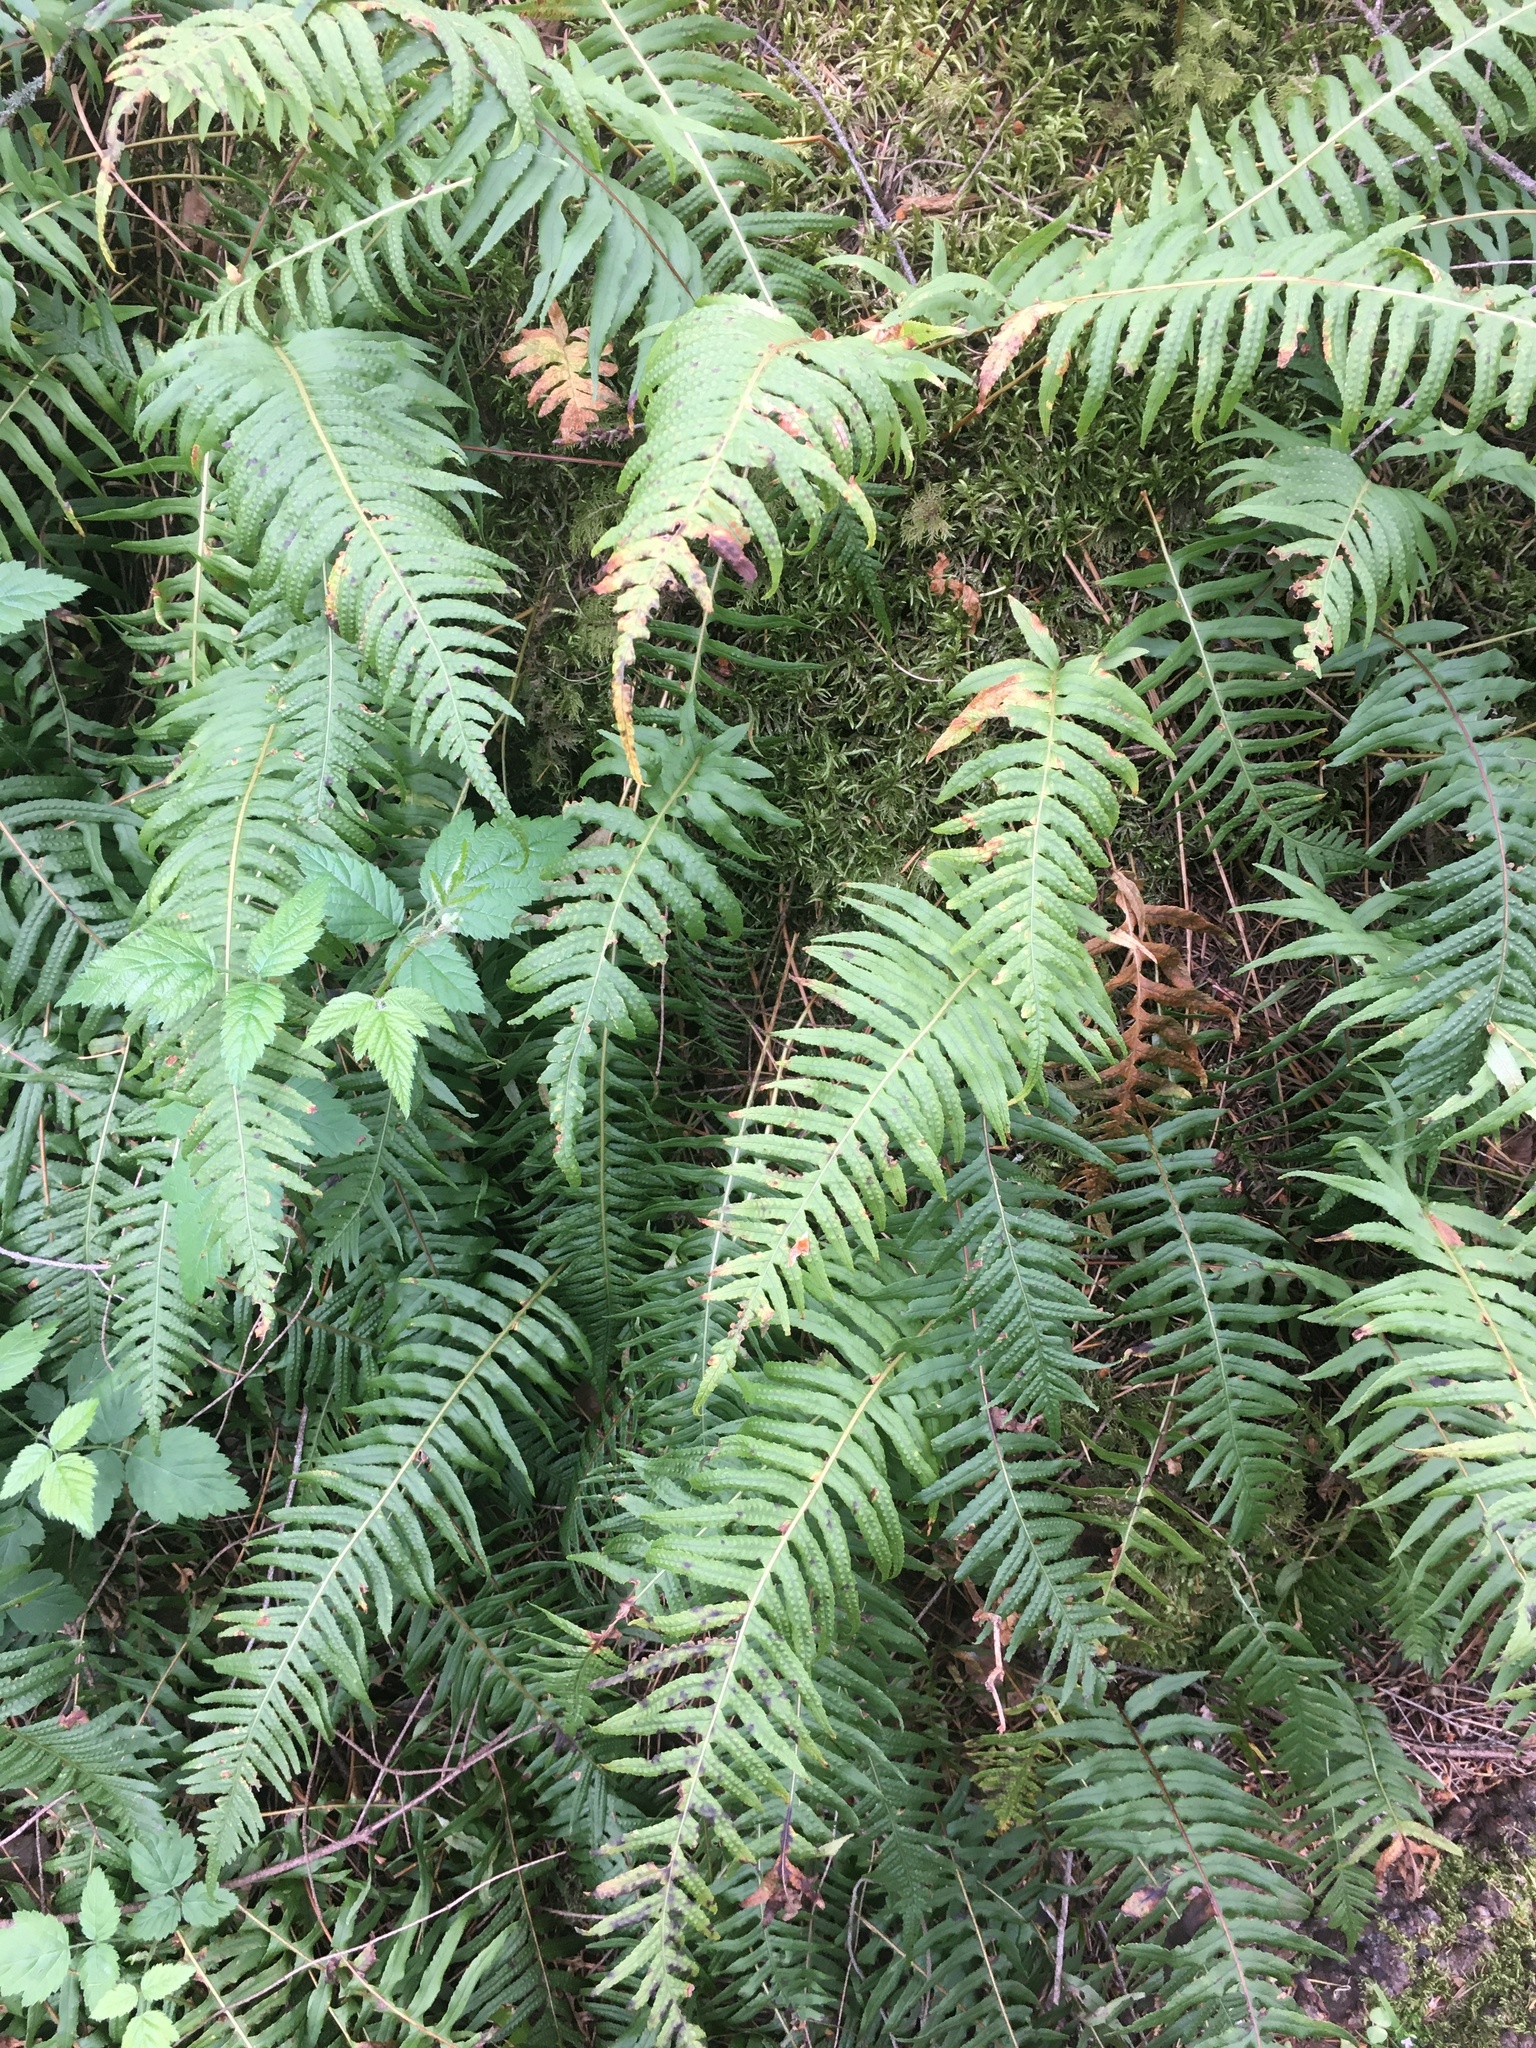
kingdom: Plantae
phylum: Tracheophyta
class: Polypodiopsida
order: Polypodiales
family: Polypodiaceae
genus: Polypodium
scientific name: Polypodium glycyrrhiza
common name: Licorice fern
